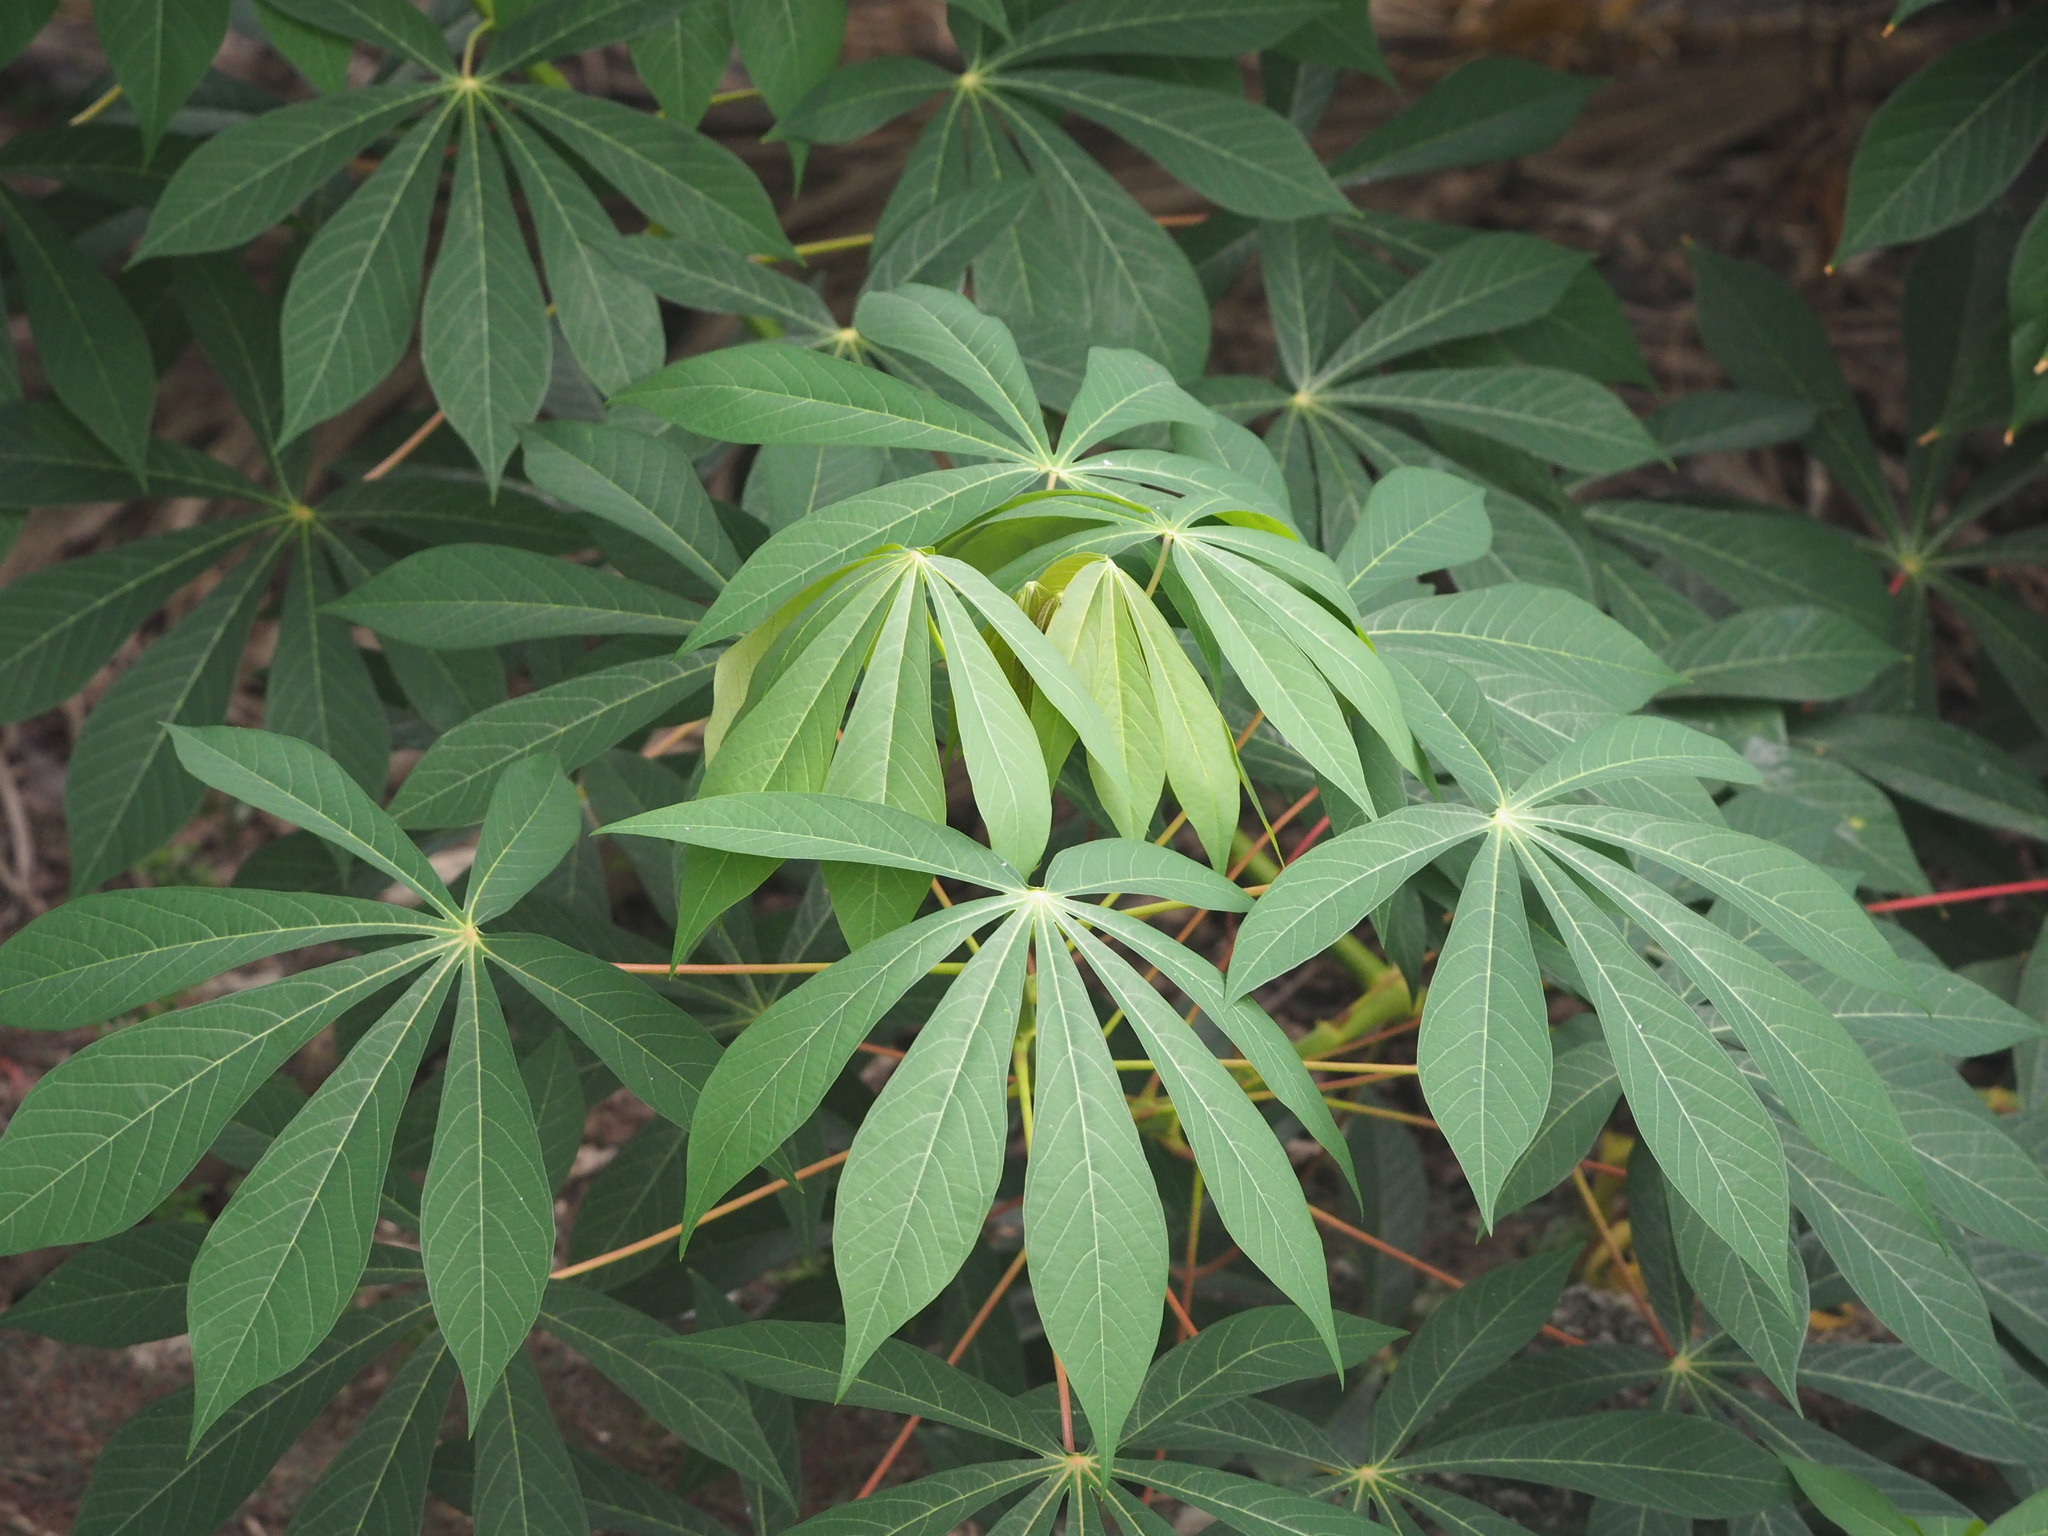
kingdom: Plantae
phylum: Tracheophyta
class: Magnoliopsida
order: Malpighiales
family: Euphorbiaceae
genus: Manihot
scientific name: Manihot esculenta
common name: Cassava
